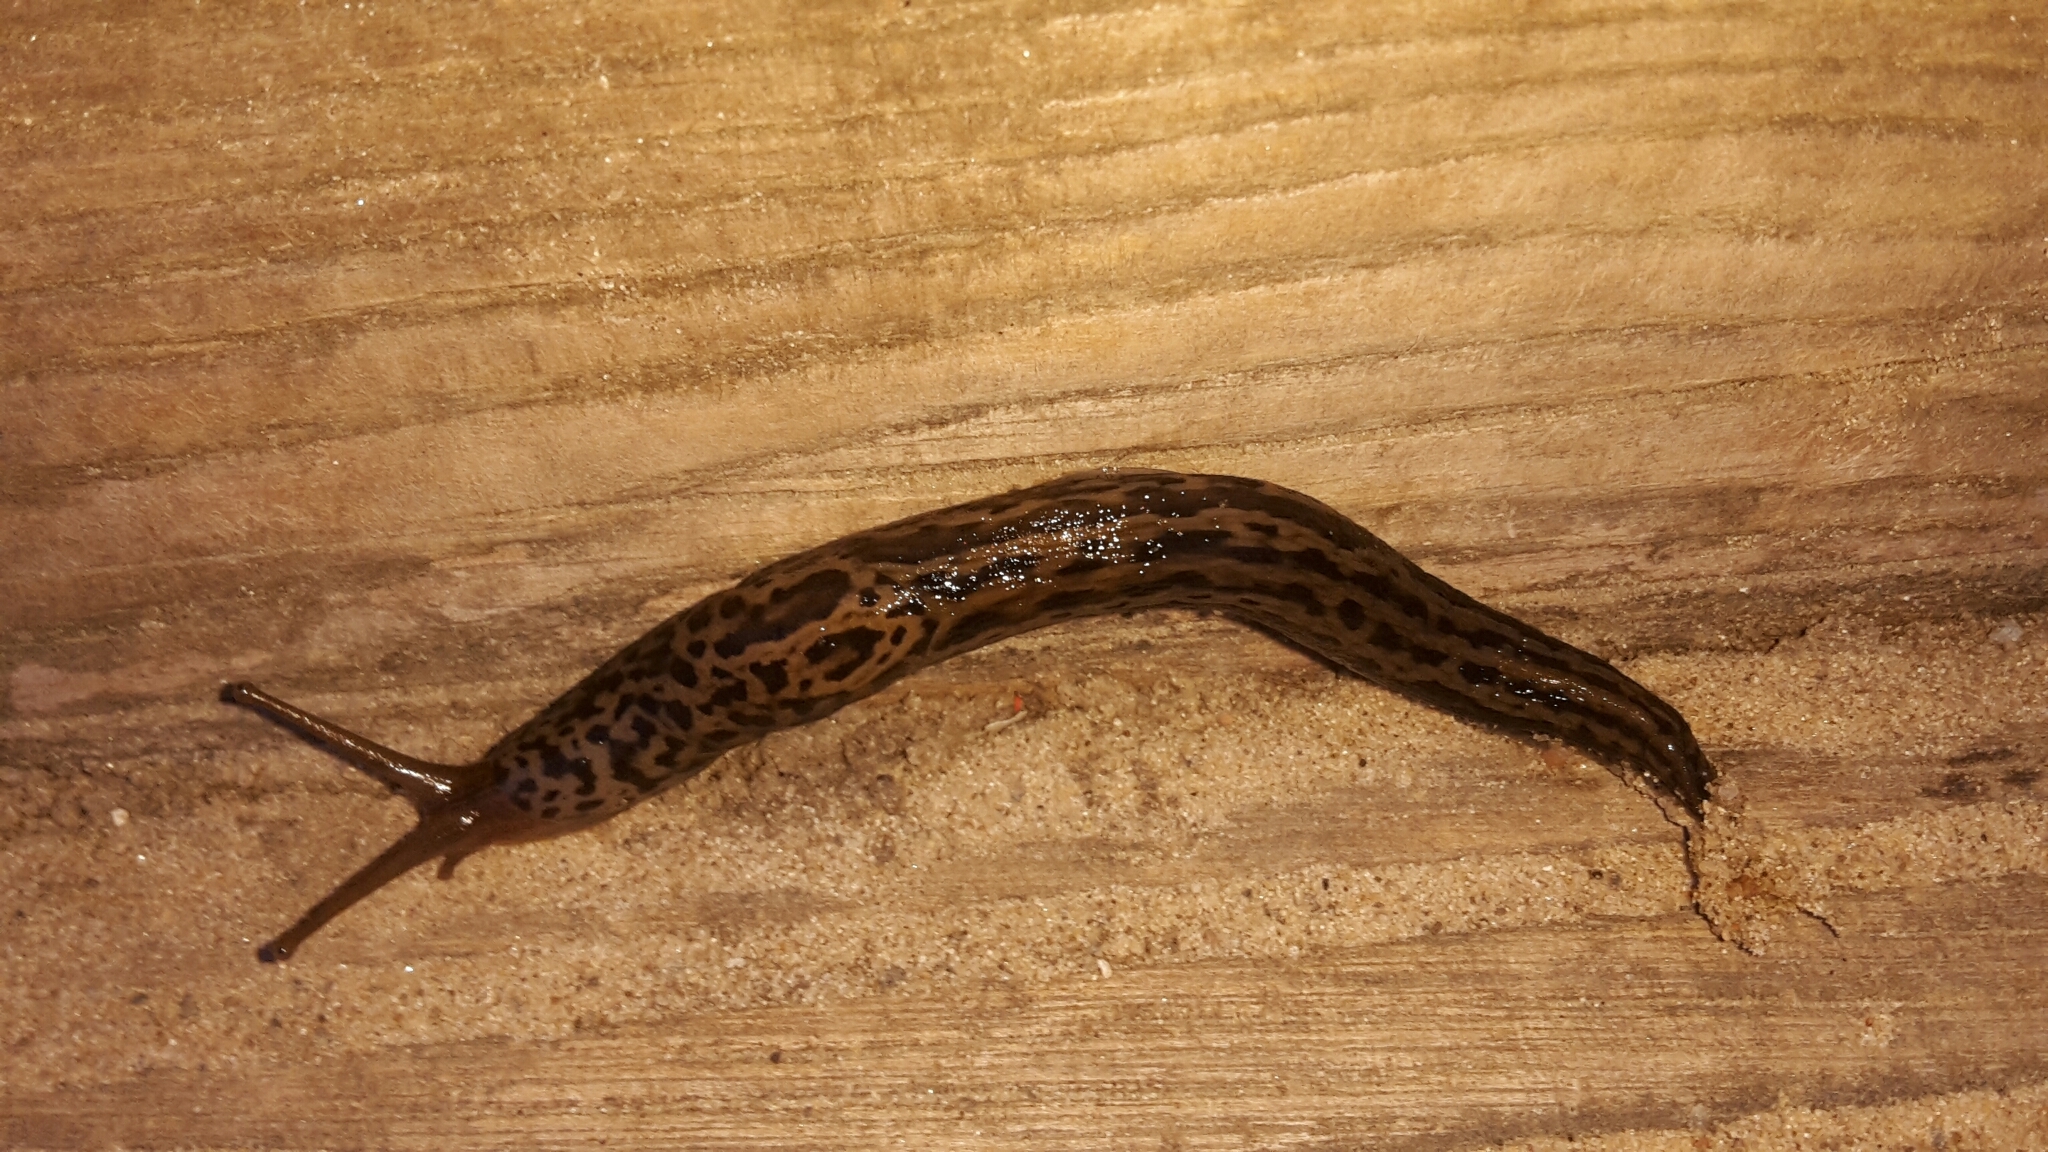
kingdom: Animalia
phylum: Mollusca
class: Gastropoda
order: Stylommatophora
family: Limacidae
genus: Limax
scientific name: Limax maximus
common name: Great grey slug
